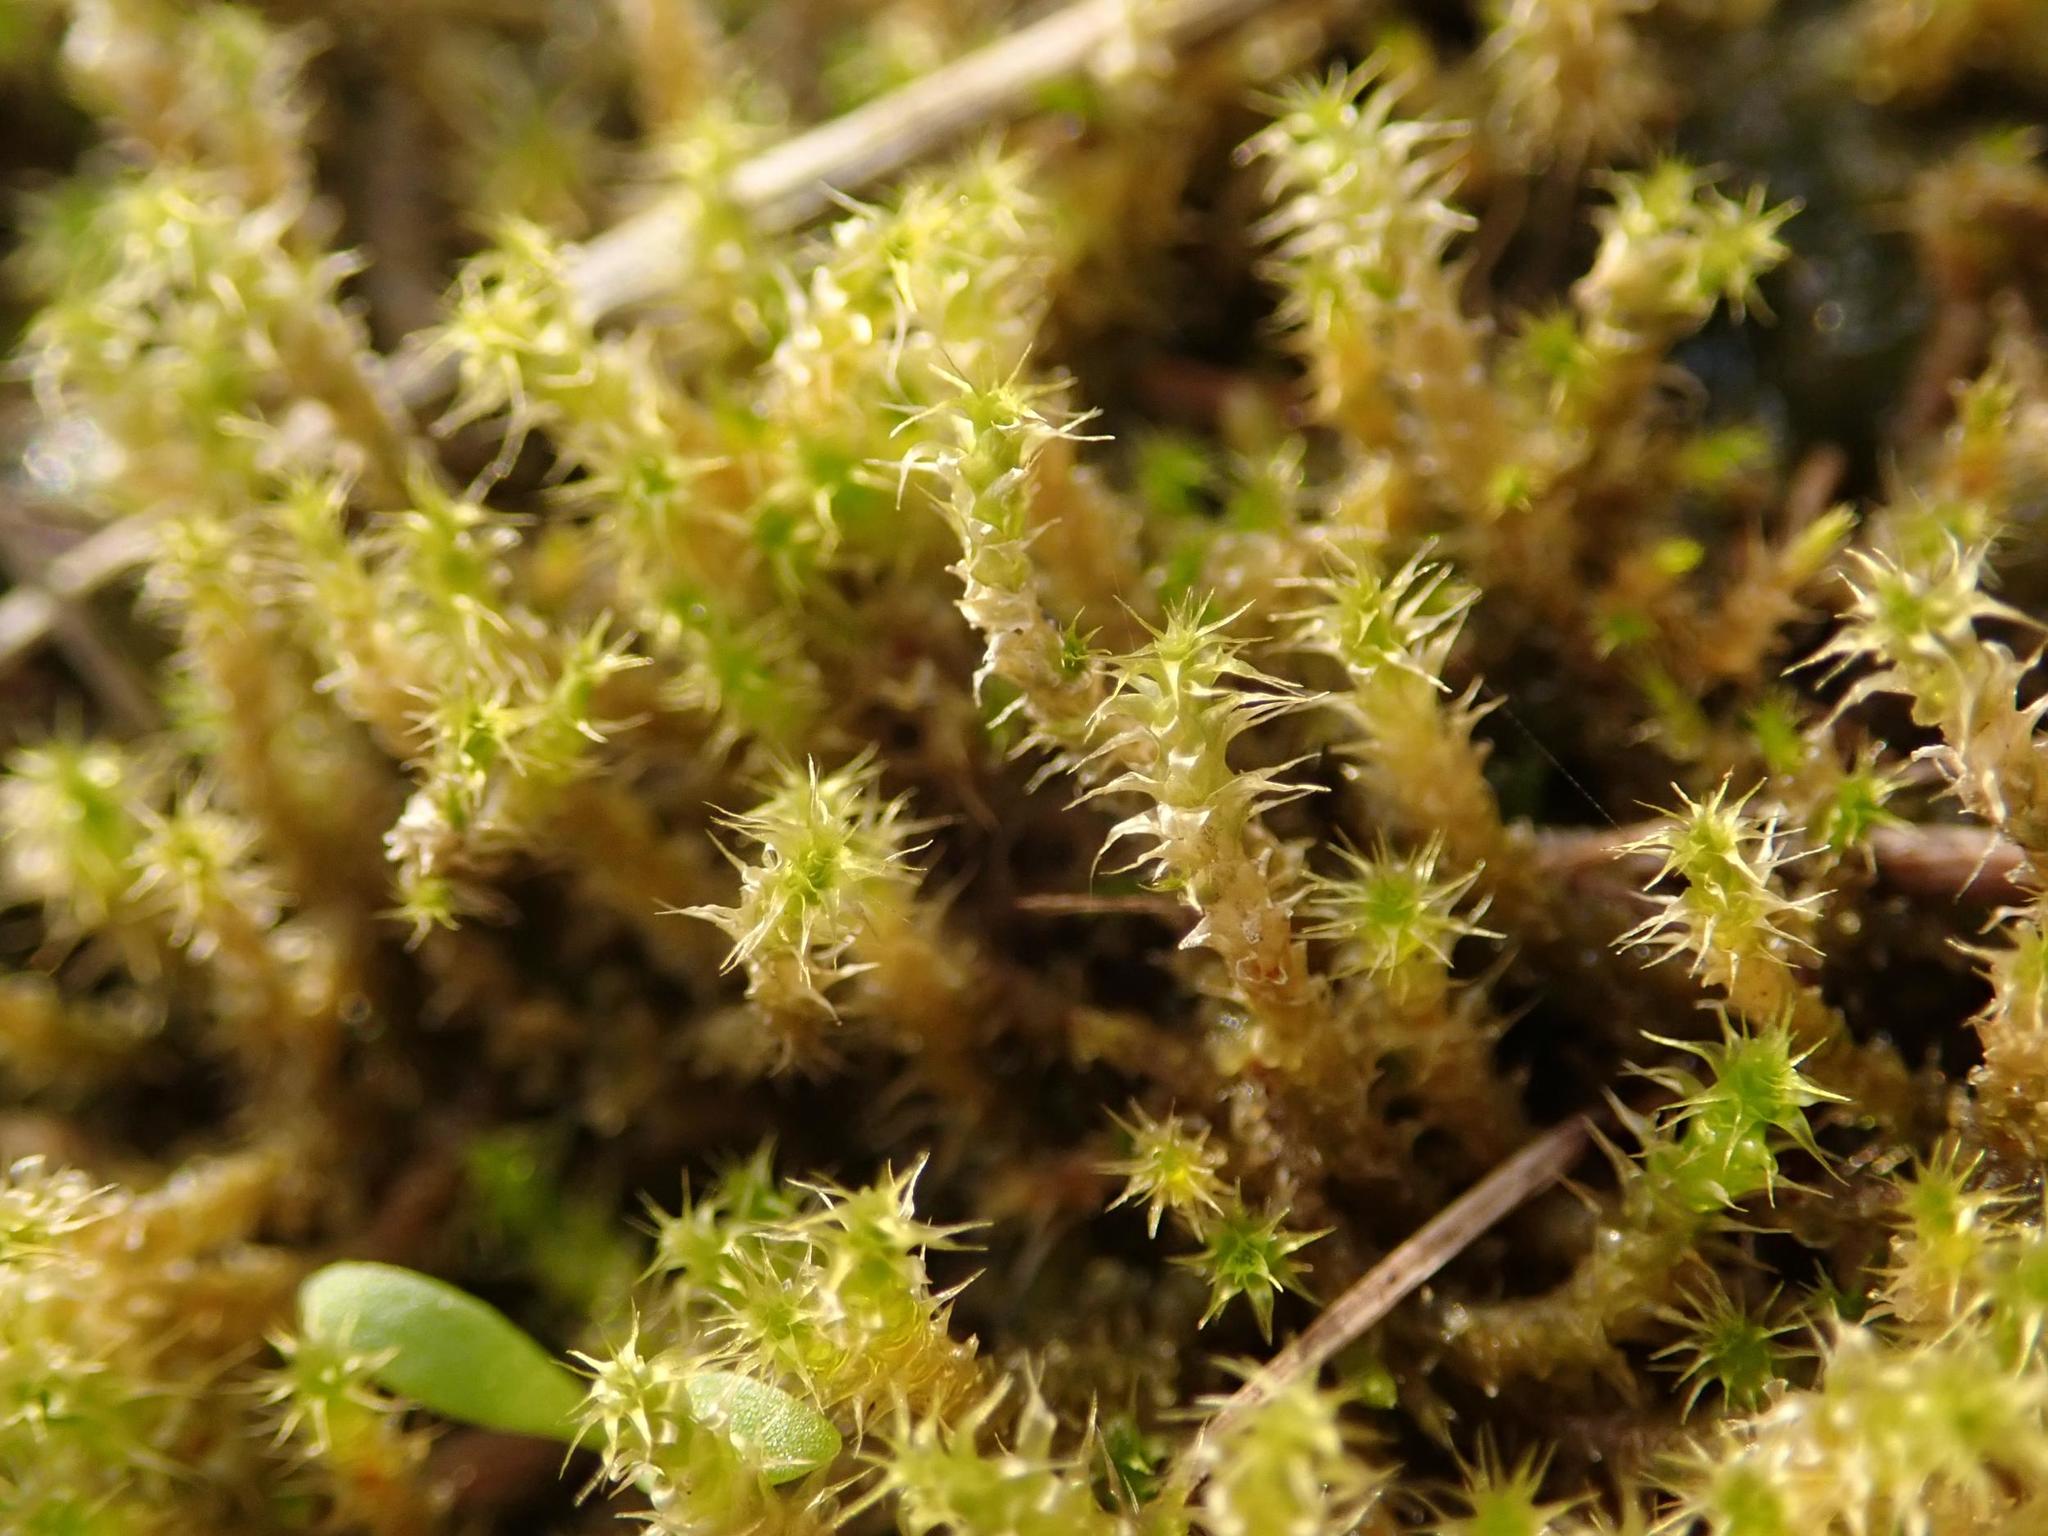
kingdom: Plantae
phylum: Bryophyta
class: Bryopsida
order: Hypnales
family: Hylocomiaceae
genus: Rhytidiadelphus
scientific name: Rhytidiadelphus squarrosus
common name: Springy turf-moss
